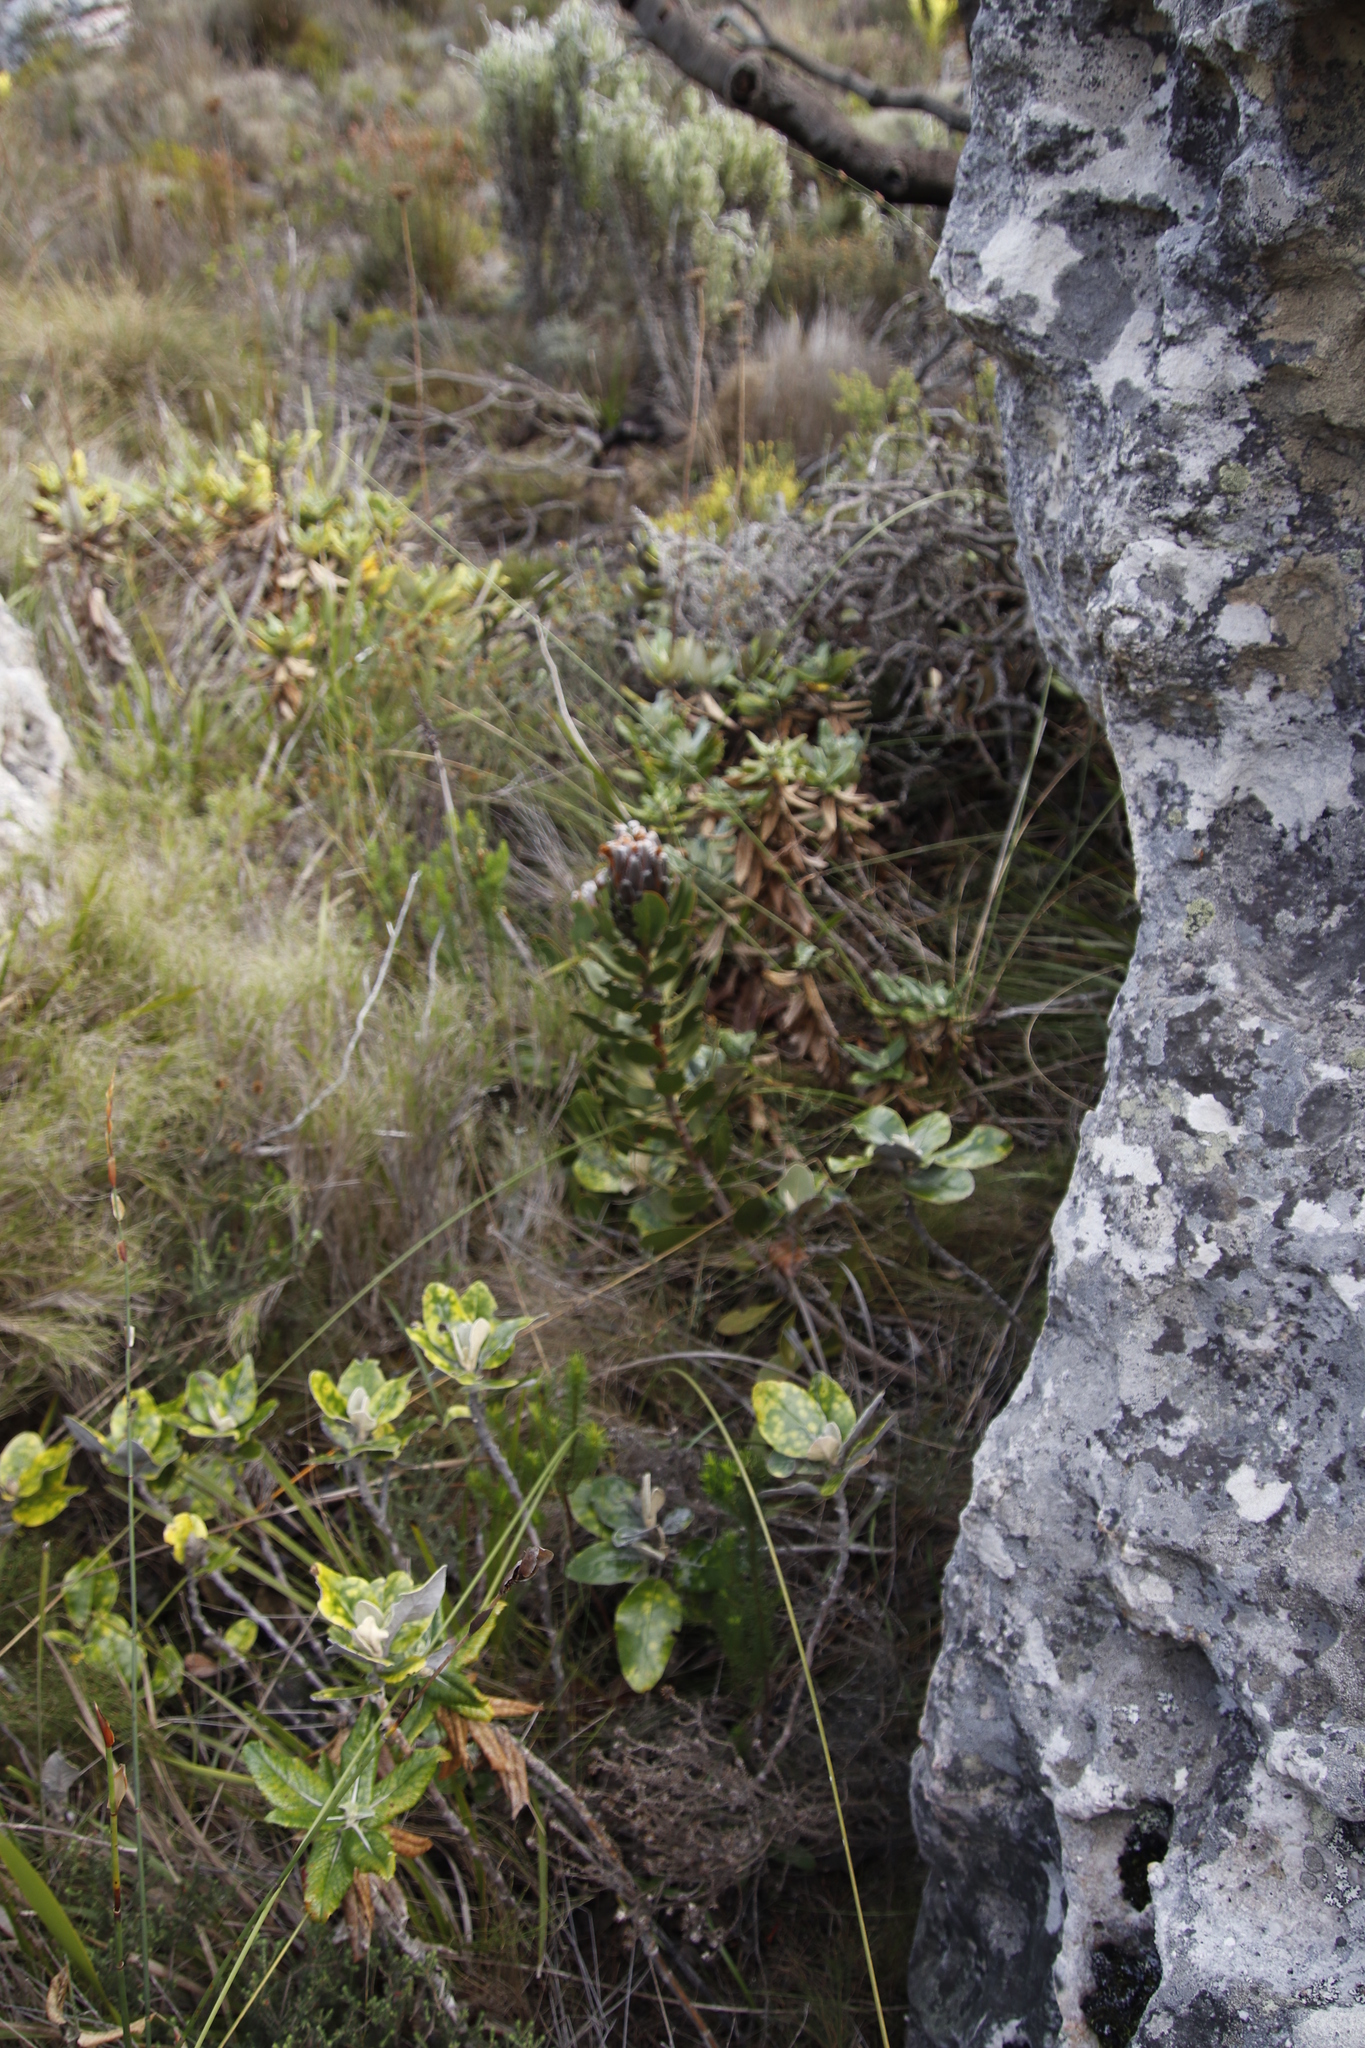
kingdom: Plantae
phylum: Tracheophyta
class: Magnoliopsida
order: Proteales
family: Proteaceae
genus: Protea
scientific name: Protea speciosa
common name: Brown-beard sugarbush
